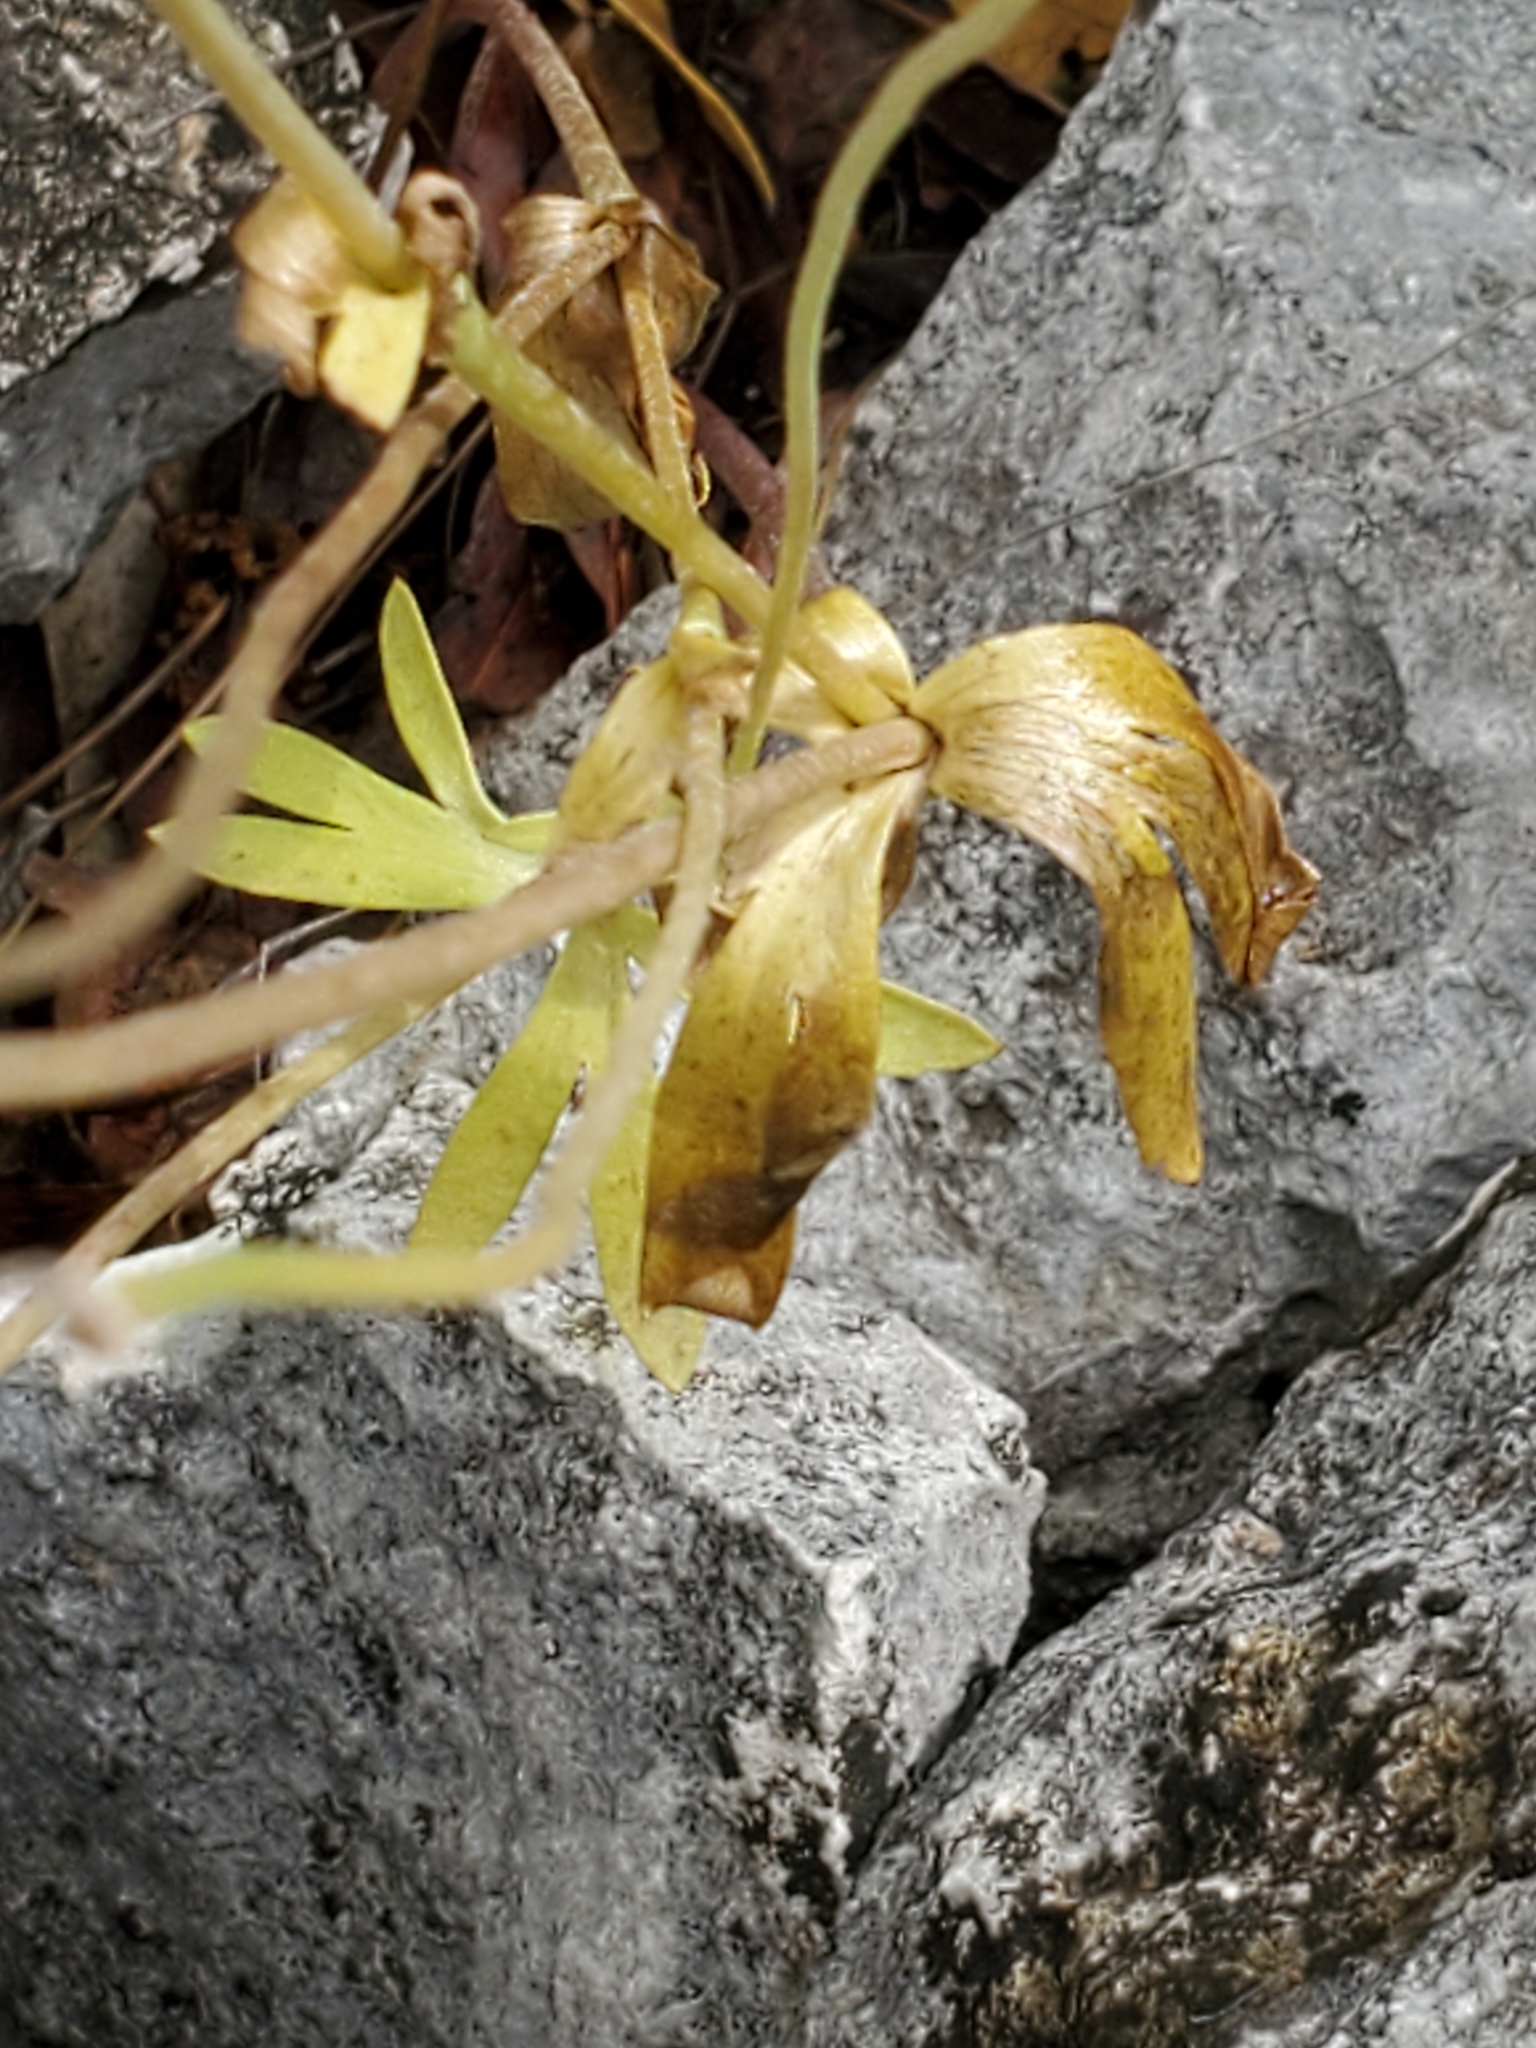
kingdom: Plantae
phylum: Tracheophyta
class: Magnoliopsida
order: Ranunculales
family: Ranunculaceae
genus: Anemone
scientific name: Anemone edwardsiana
